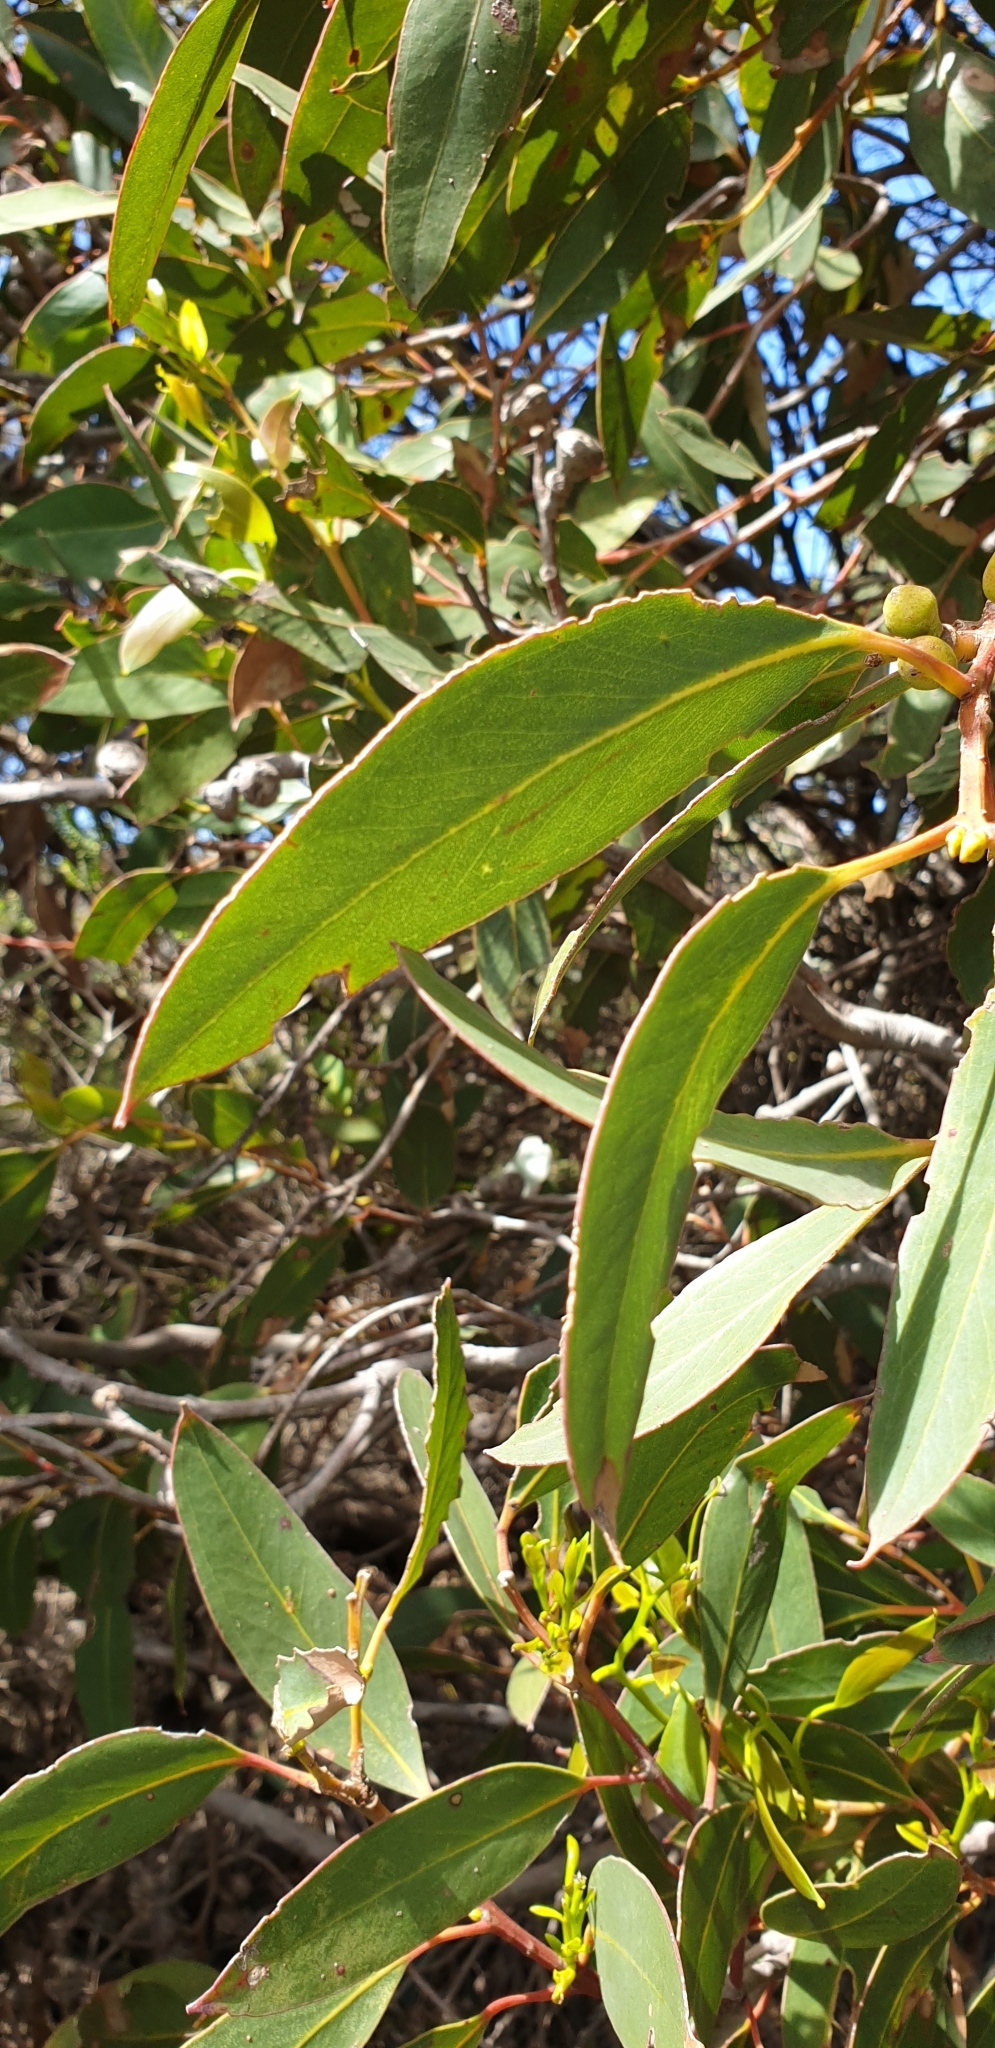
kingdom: Plantae
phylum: Tracheophyta
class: Magnoliopsida
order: Myrtales
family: Myrtaceae
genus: Eucalyptus
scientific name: Eucalyptus diversifolia
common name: Coastal white mallee
